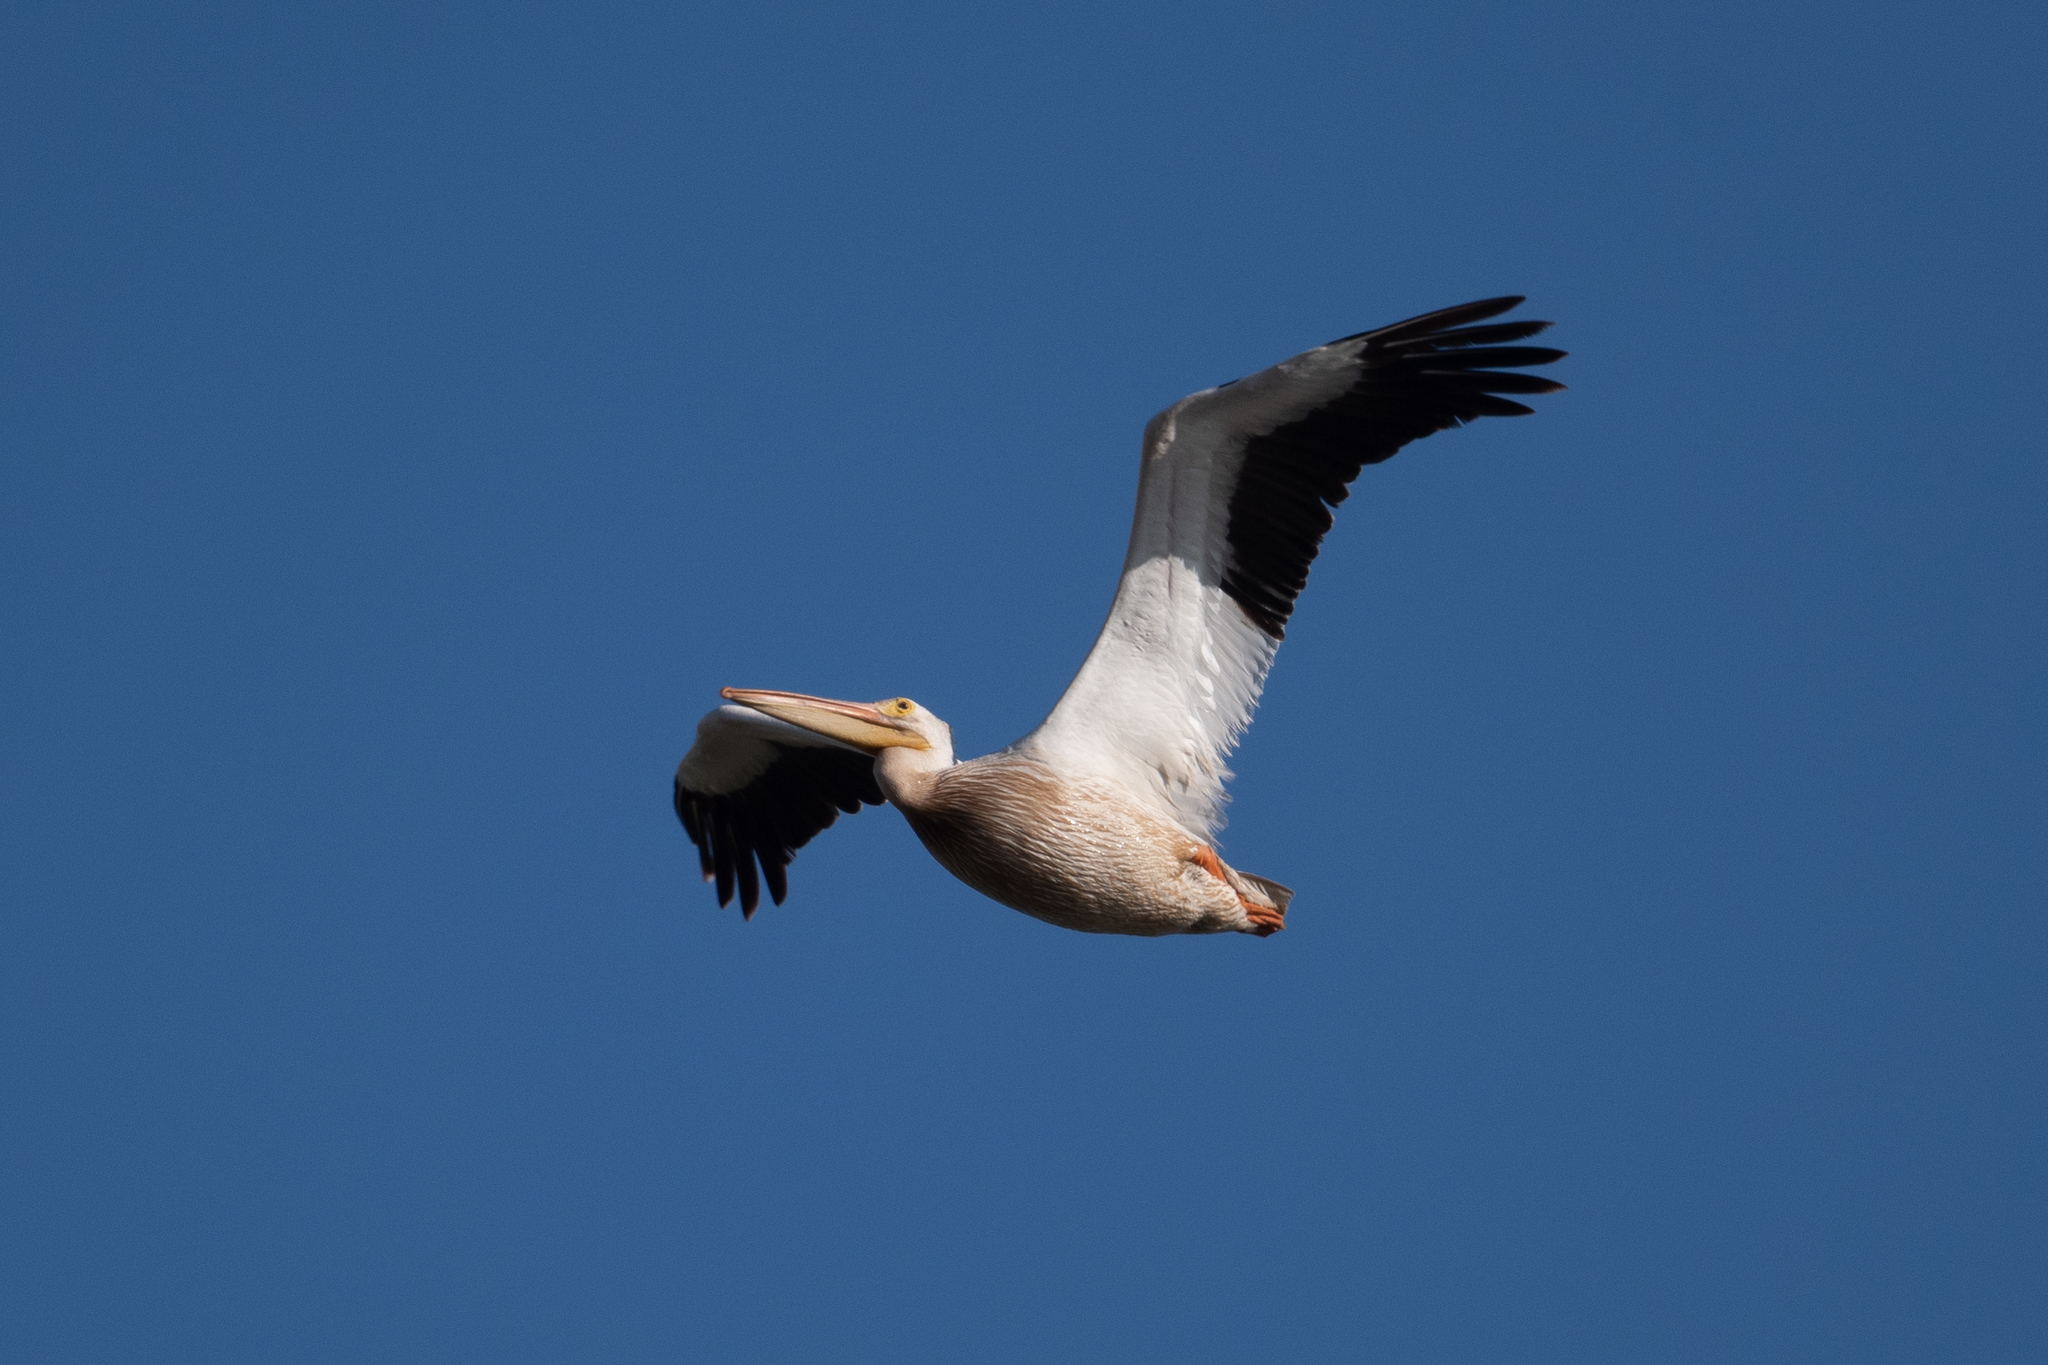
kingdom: Animalia
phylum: Chordata
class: Aves
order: Pelecaniformes
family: Pelecanidae
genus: Pelecanus
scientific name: Pelecanus erythrorhynchos
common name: American white pelican
